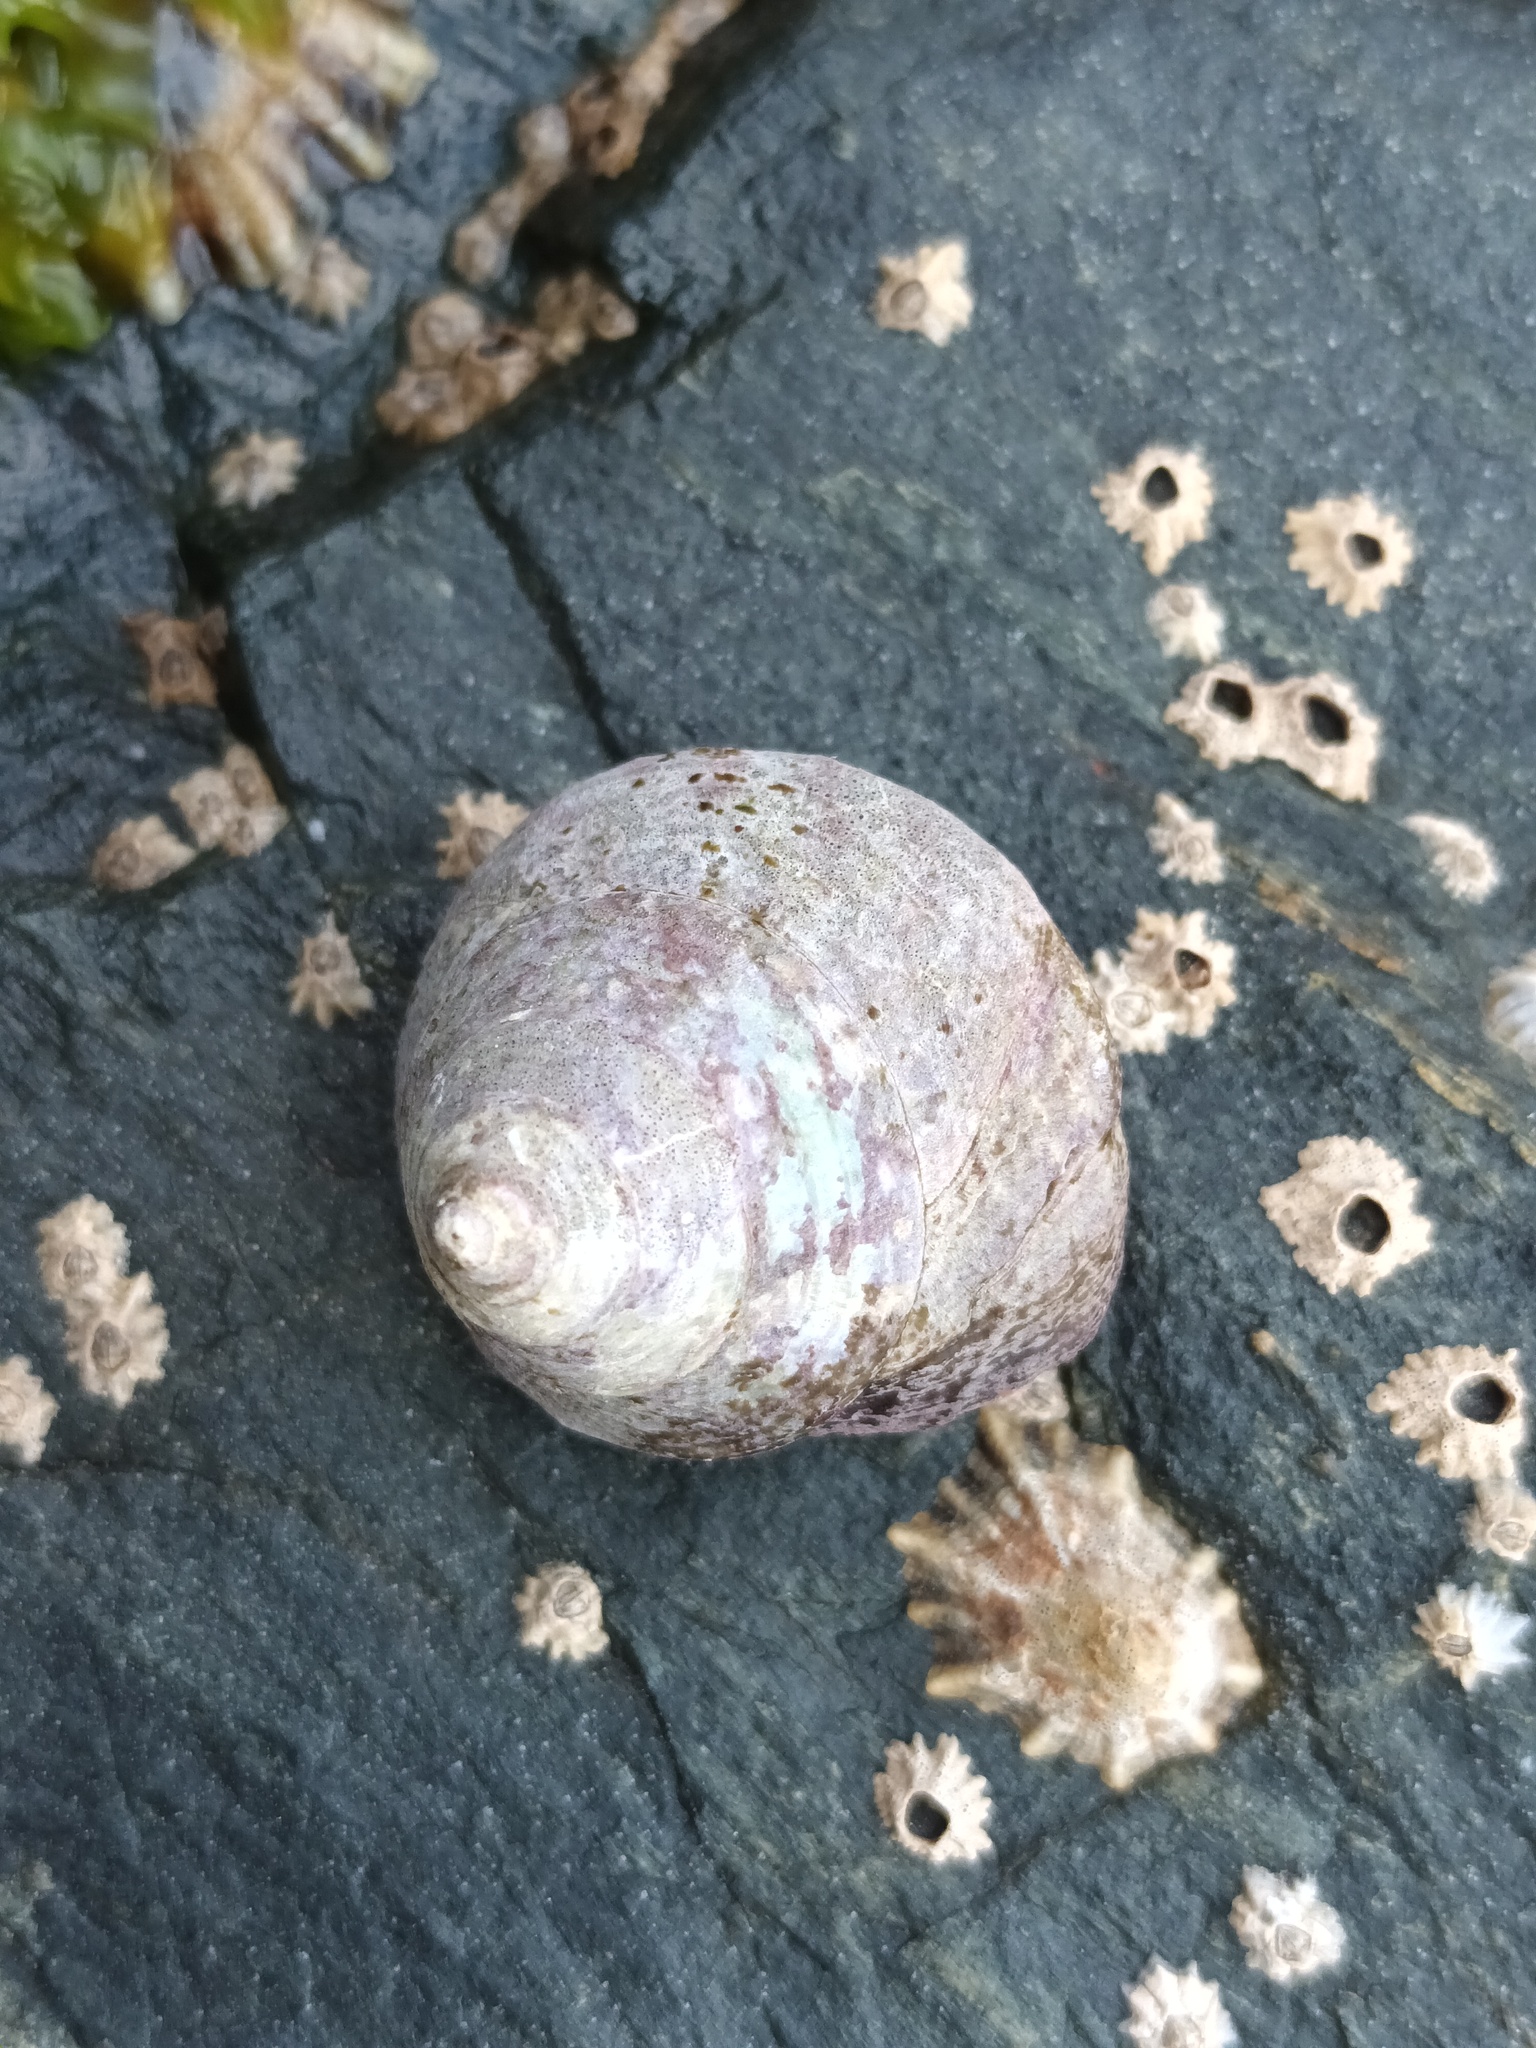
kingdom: Animalia
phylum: Mollusca
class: Gastropoda
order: Trochida
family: Calliostomatidae
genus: Calliostoma
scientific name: Calliostoma zizyphinum
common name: Painted top shell
